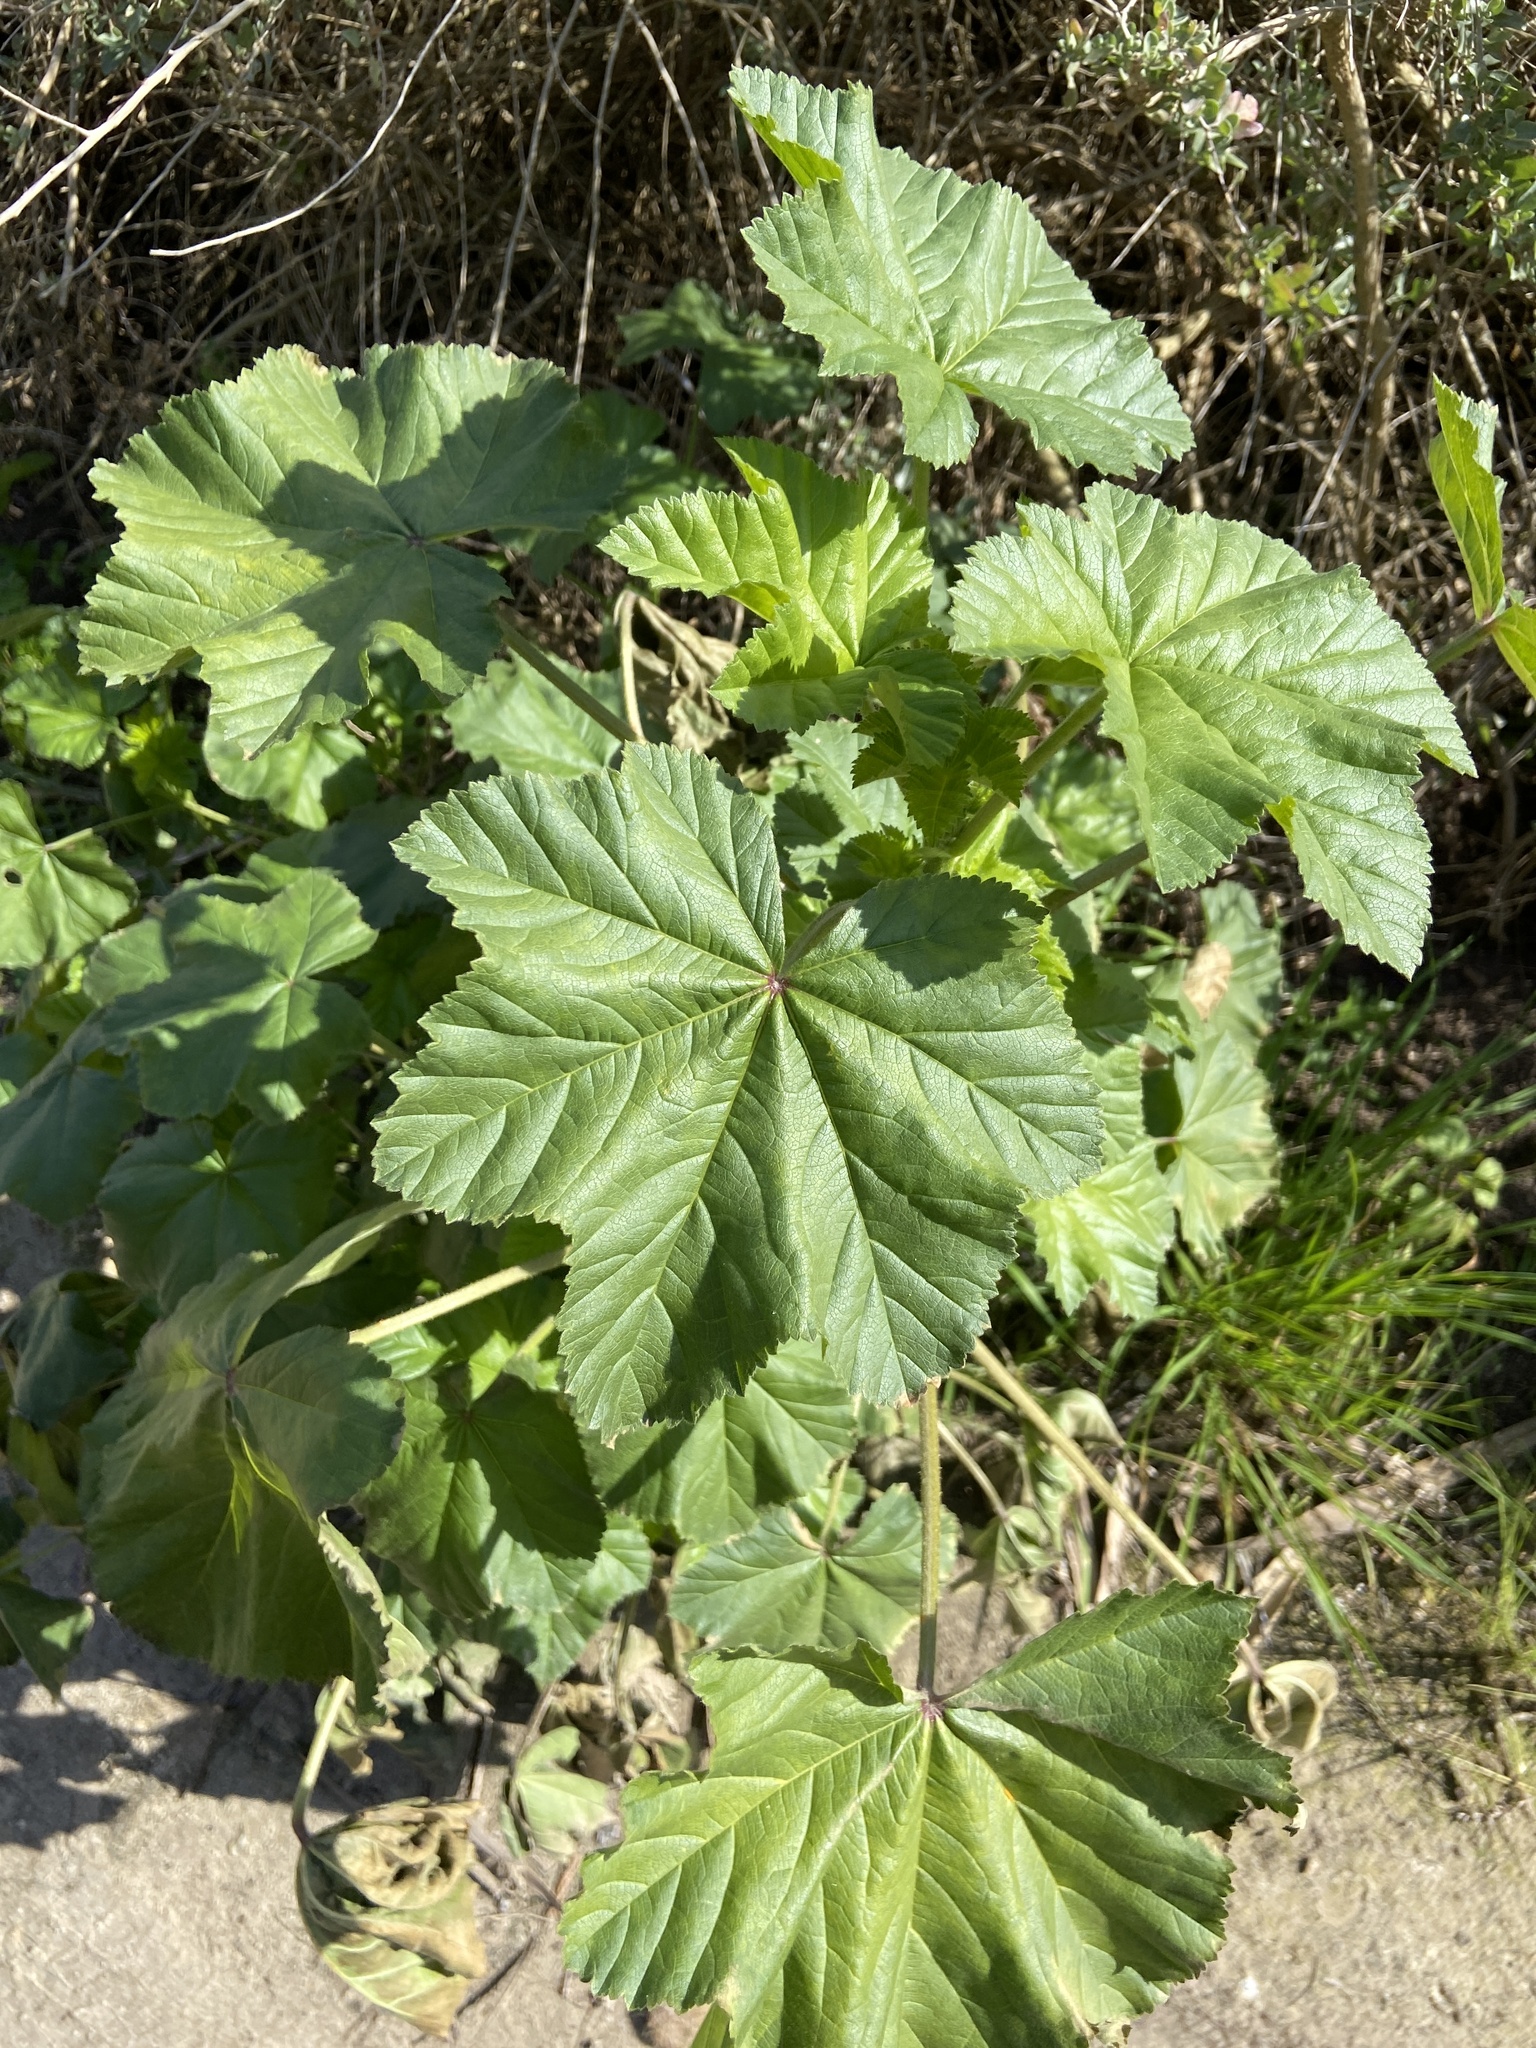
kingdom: Plantae
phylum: Tracheophyta
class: Magnoliopsida
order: Malvales
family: Malvaceae
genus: Malva
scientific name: Malva arborea
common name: Tree mallow
